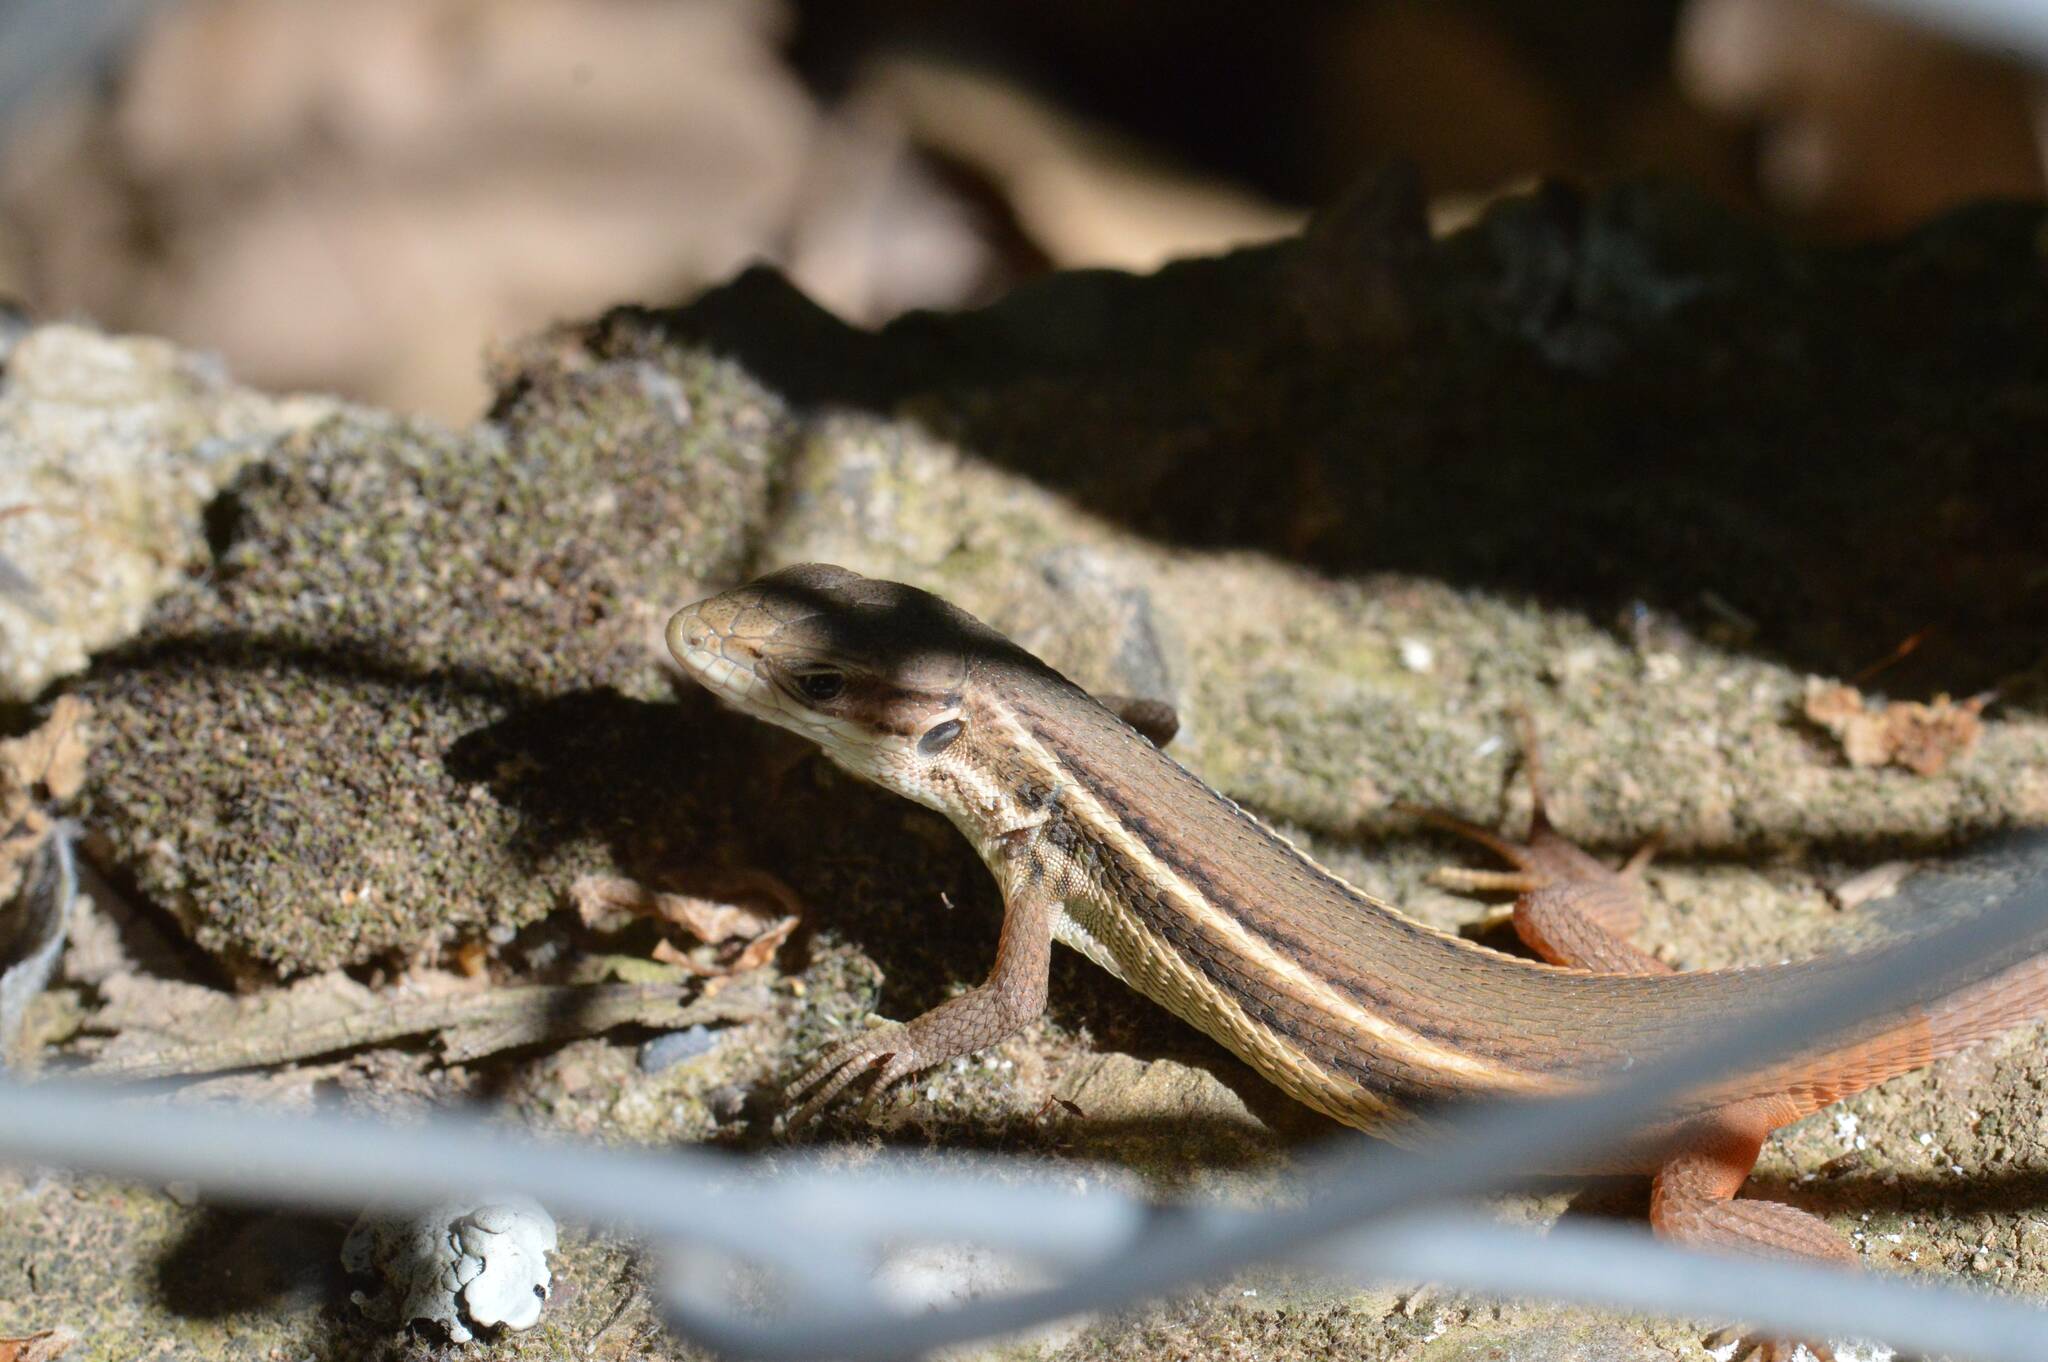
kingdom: Animalia
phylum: Chordata
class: Squamata
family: Lacertidae
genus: Psammodromus
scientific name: Psammodromus algirus
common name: Algerian psammodromus
